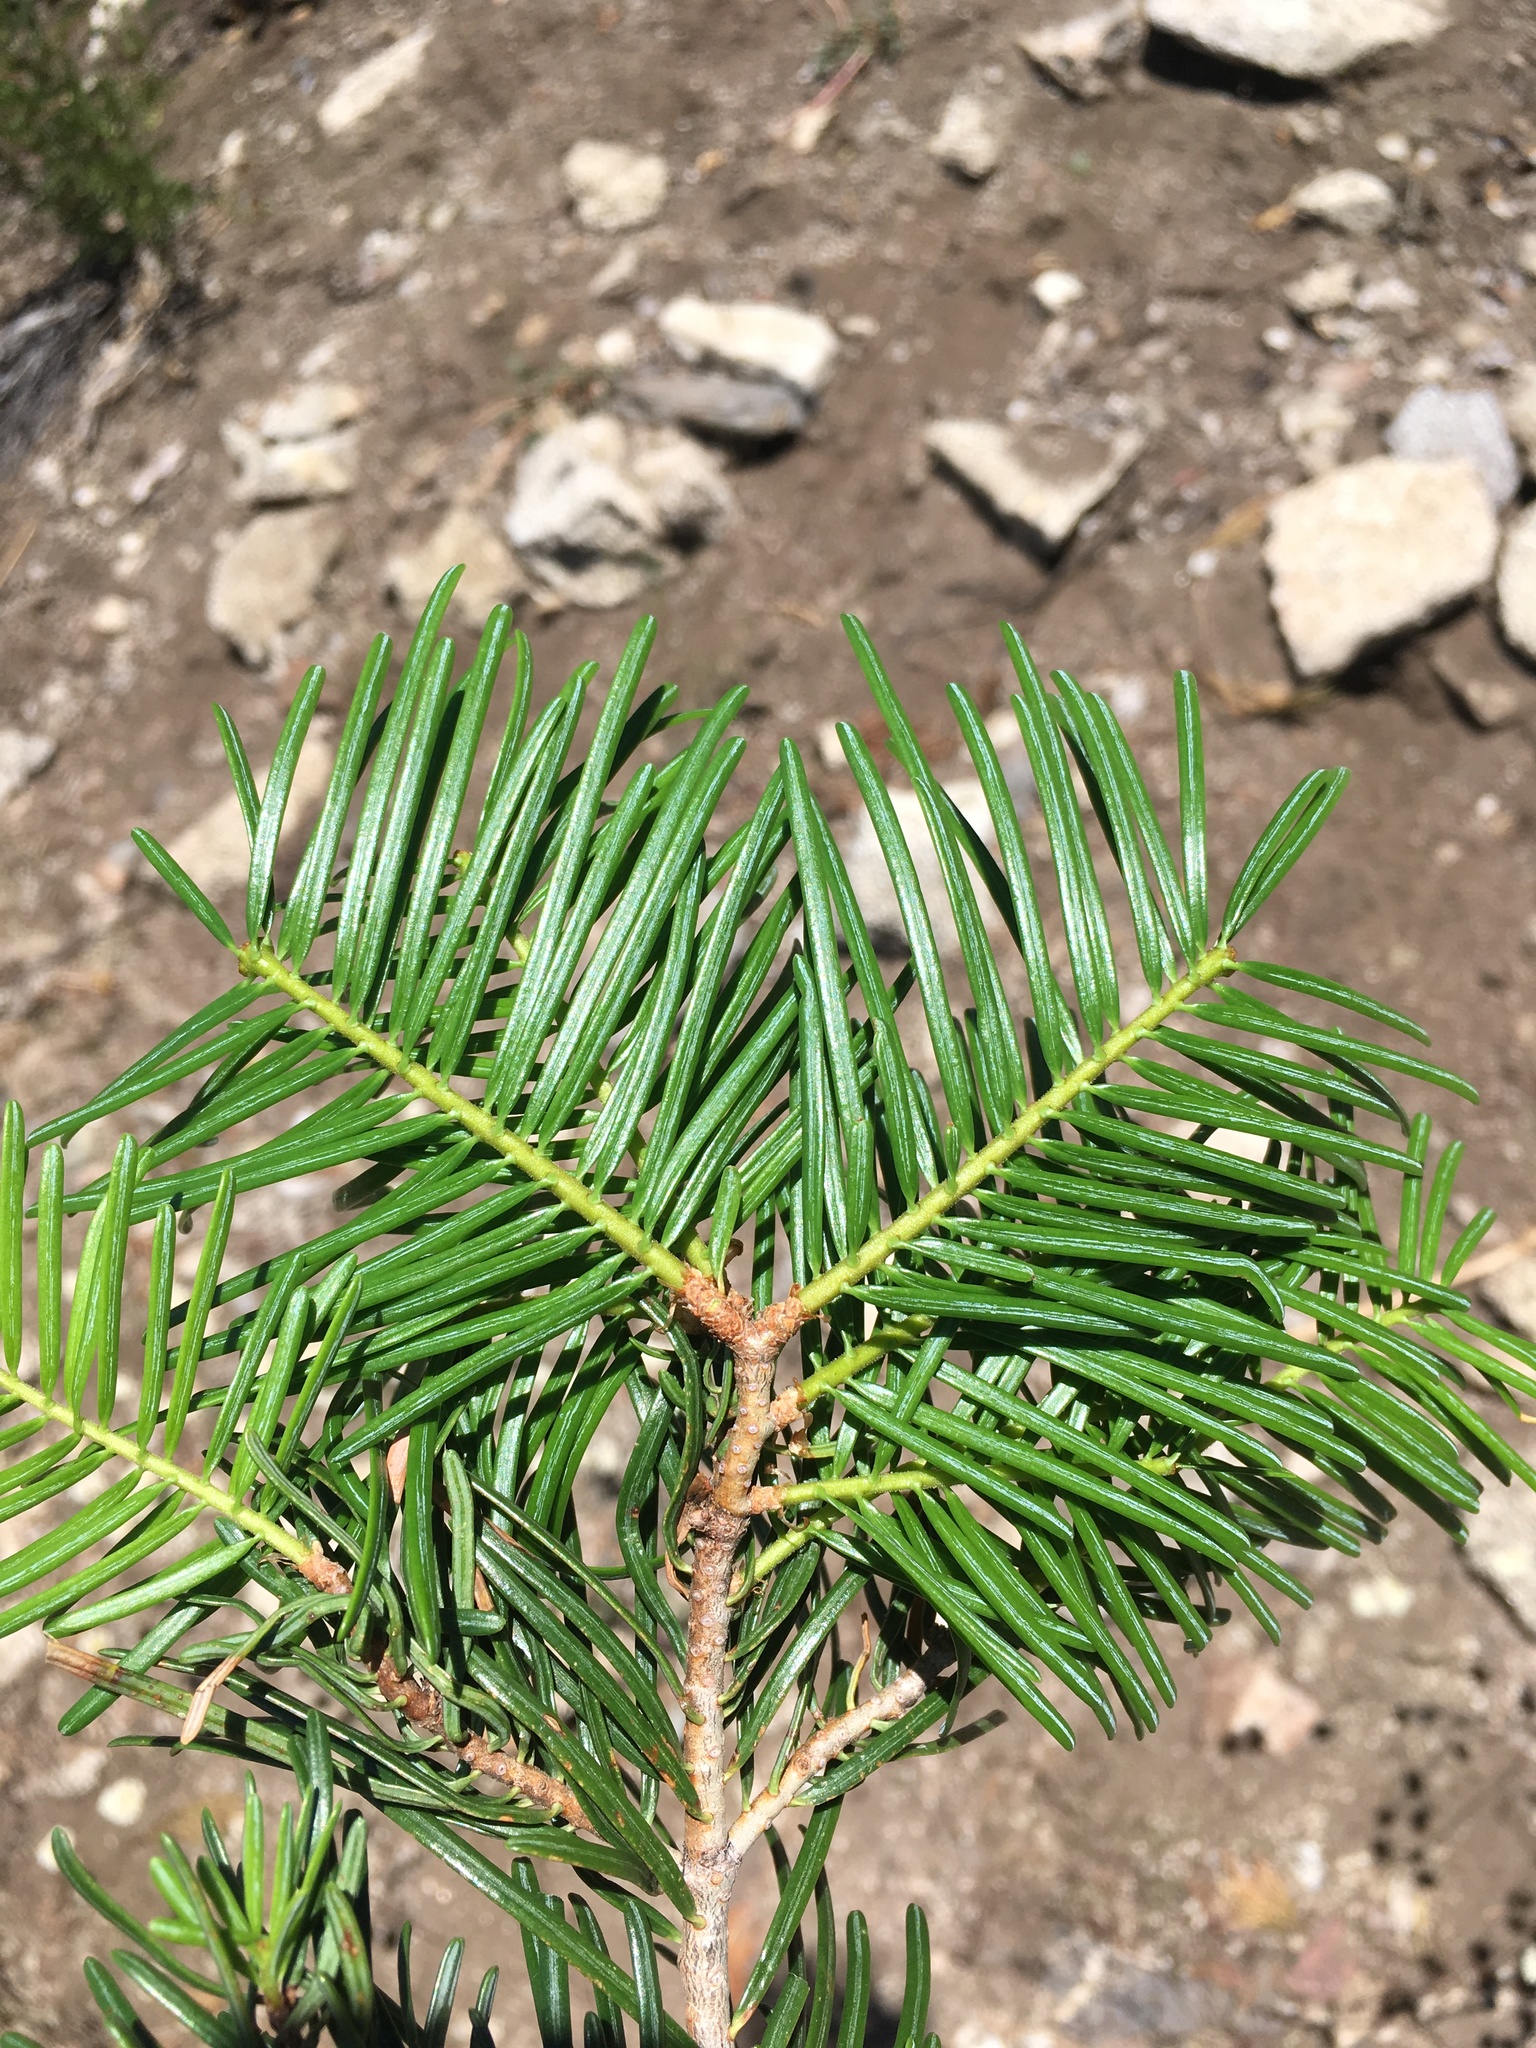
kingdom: Plantae
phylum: Tracheophyta
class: Pinopsida
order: Pinales
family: Pinaceae
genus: Abies
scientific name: Abies concolor
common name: Colorado fir
